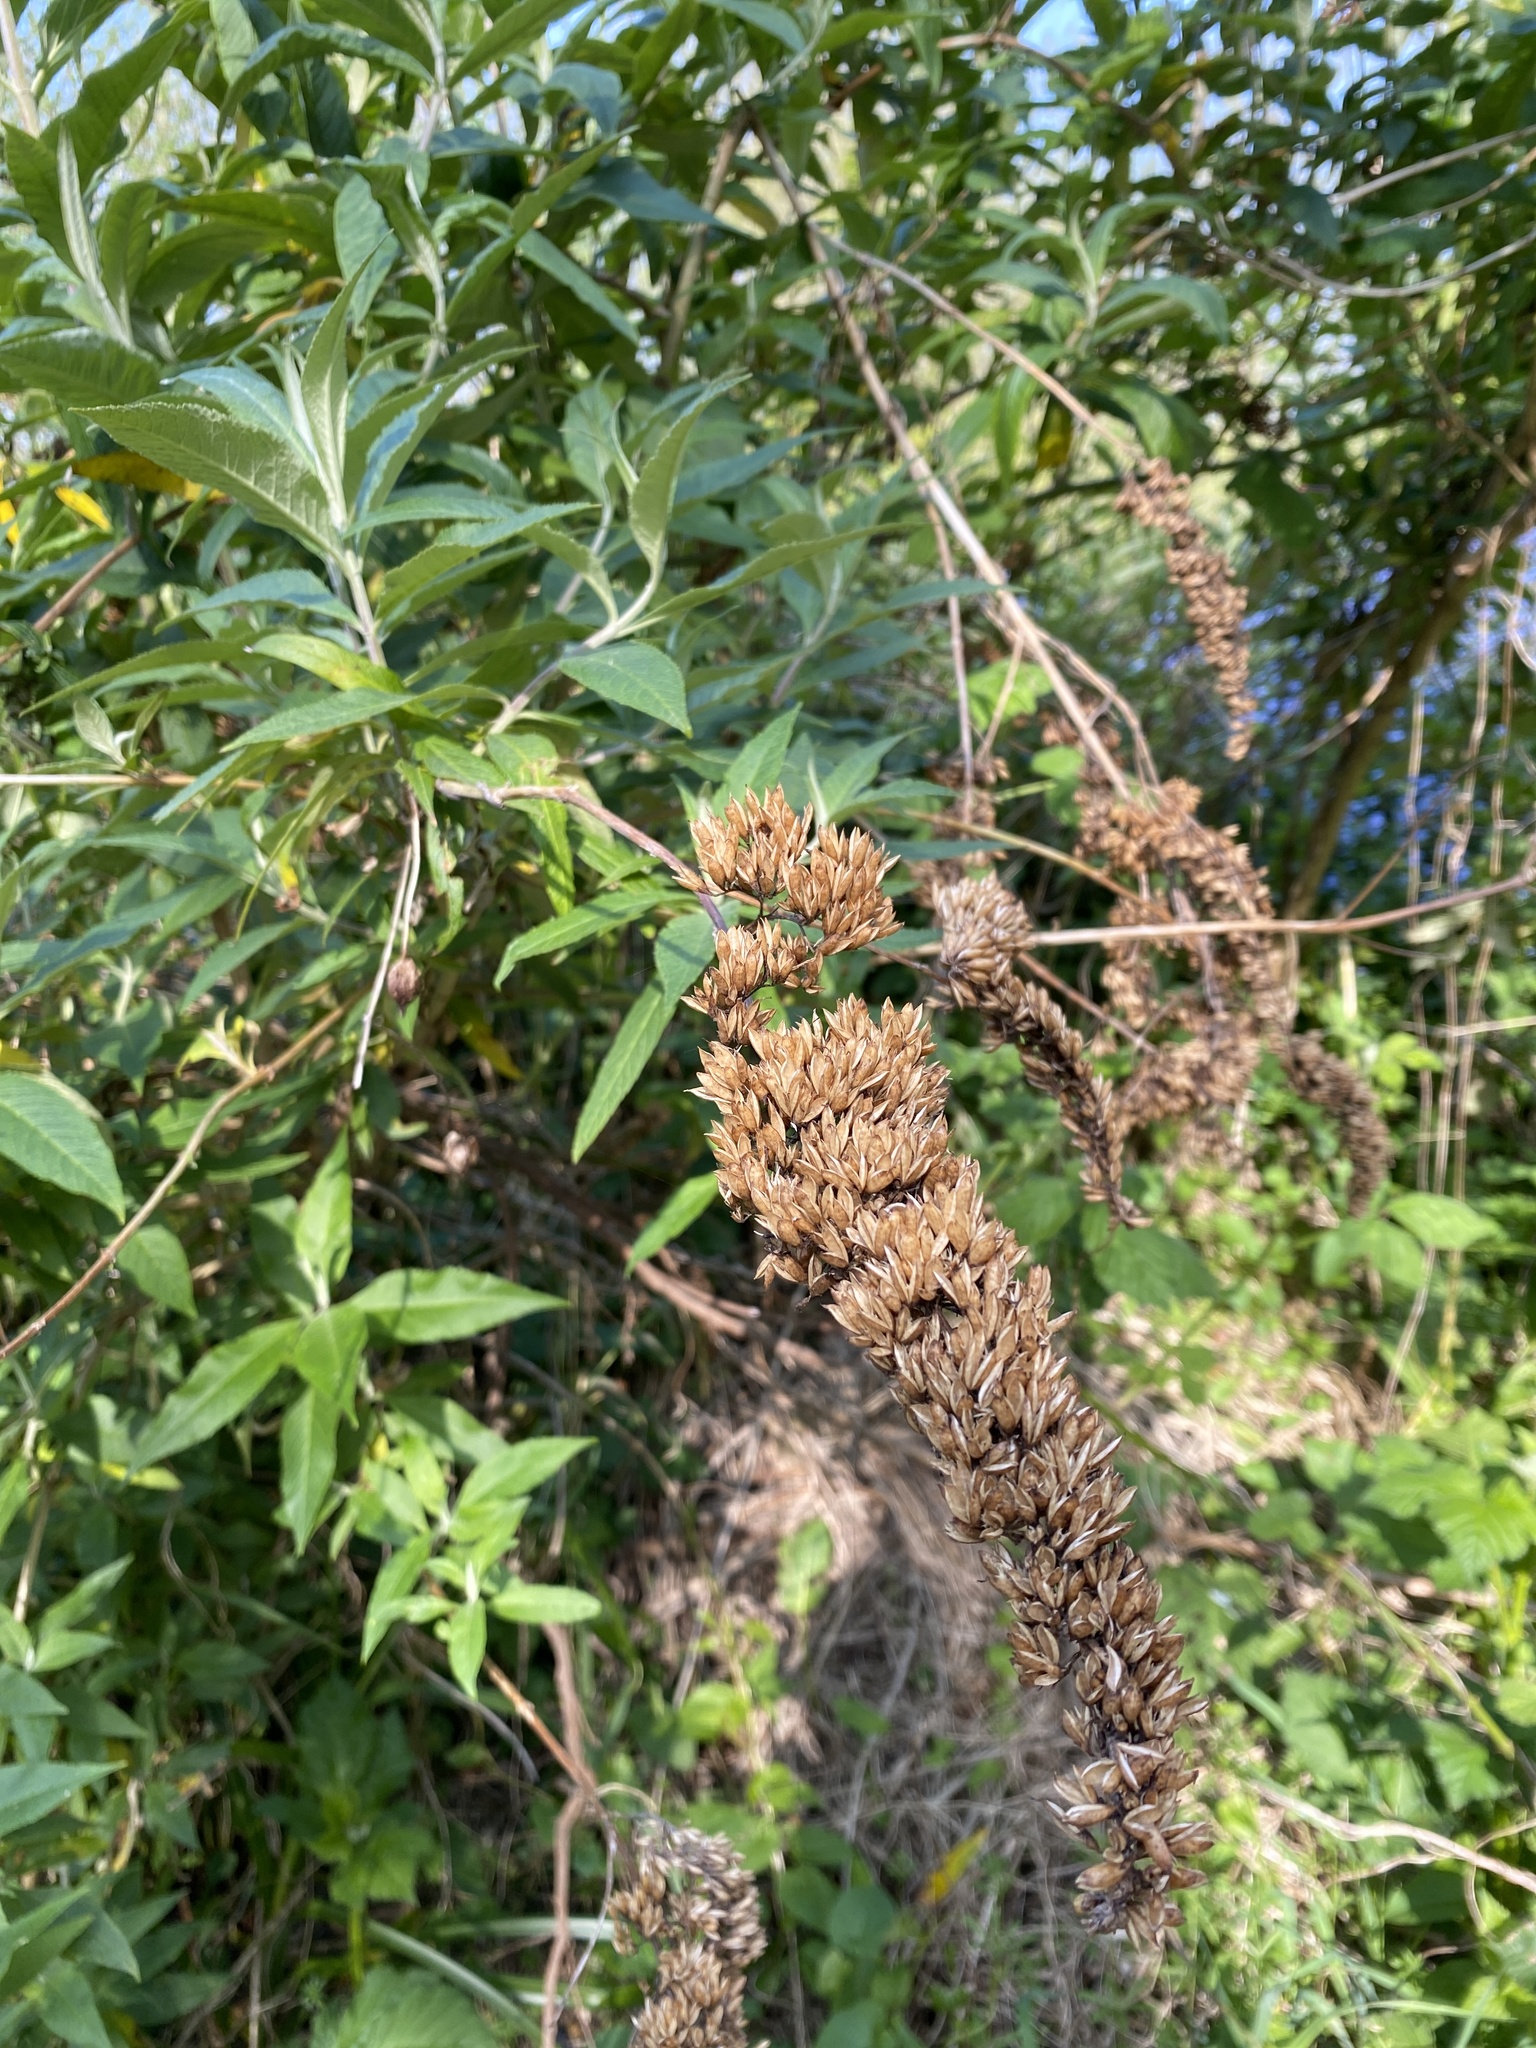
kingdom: Plantae
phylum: Tracheophyta
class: Magnoliopsida
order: Lamiales
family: Scrophulariaceae
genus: Buddleja
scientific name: Buddleja davidii
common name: Butterfly-bush
